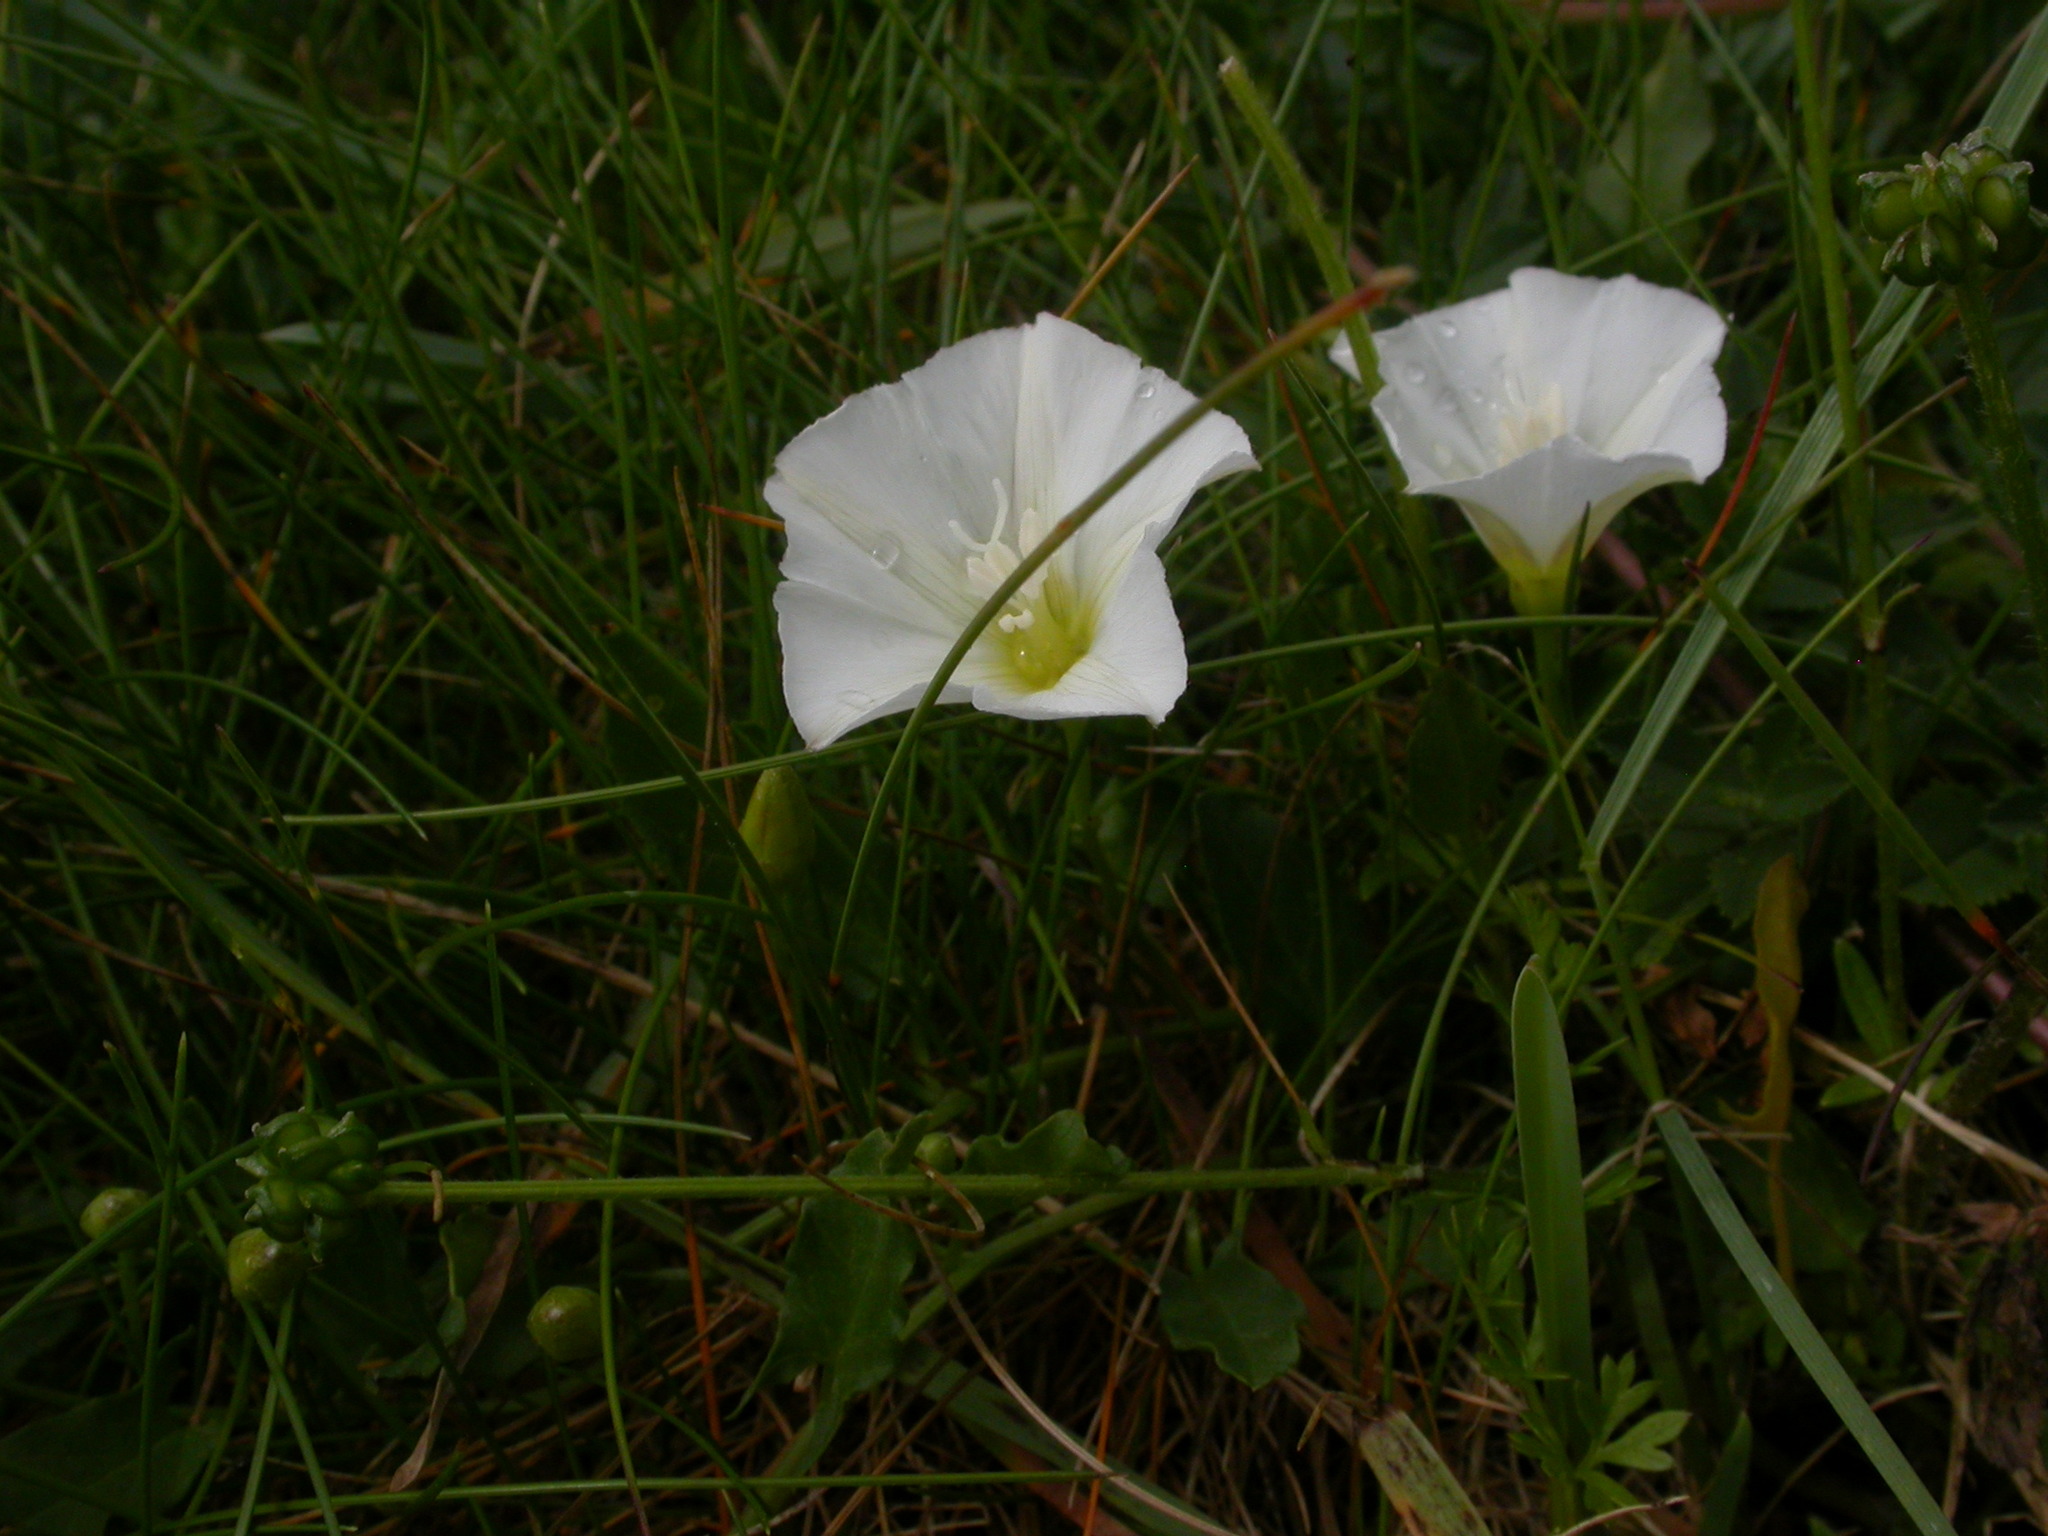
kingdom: Plantae
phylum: Tracheophyta
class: Magnoliopsida
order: Solanales
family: Convolvulaceae
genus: Convolvulus
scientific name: Convolvulus arvensis
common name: Field bindweed
